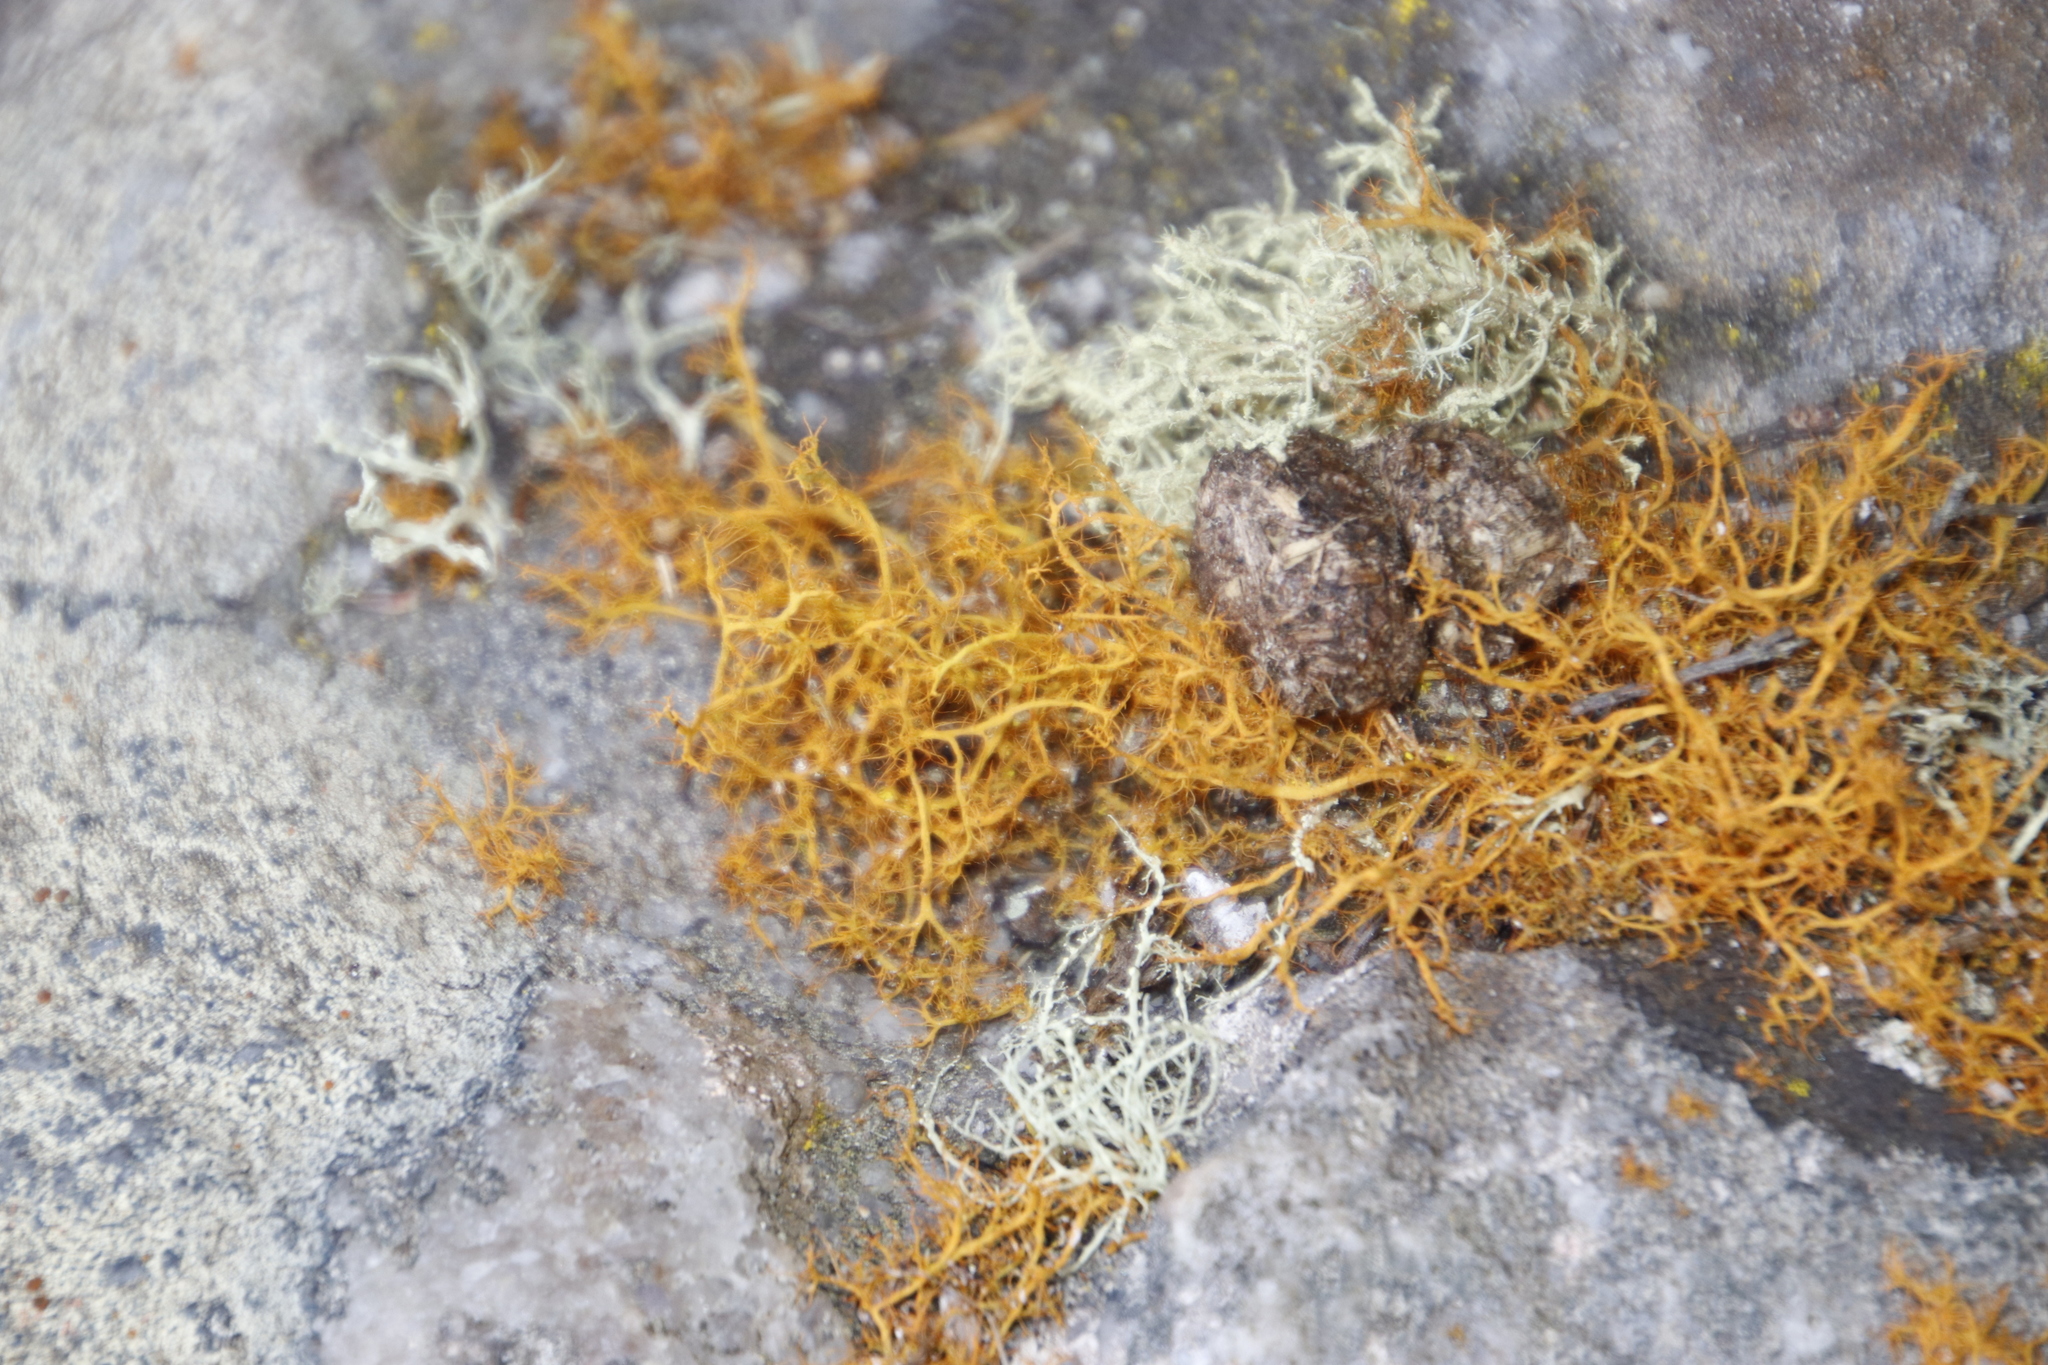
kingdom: Fungi
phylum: Ascomycota
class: Lecanoromycetes
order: Teloschistales
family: Teloschistaceae
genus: Teloschistes
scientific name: Teloschistes capensis
